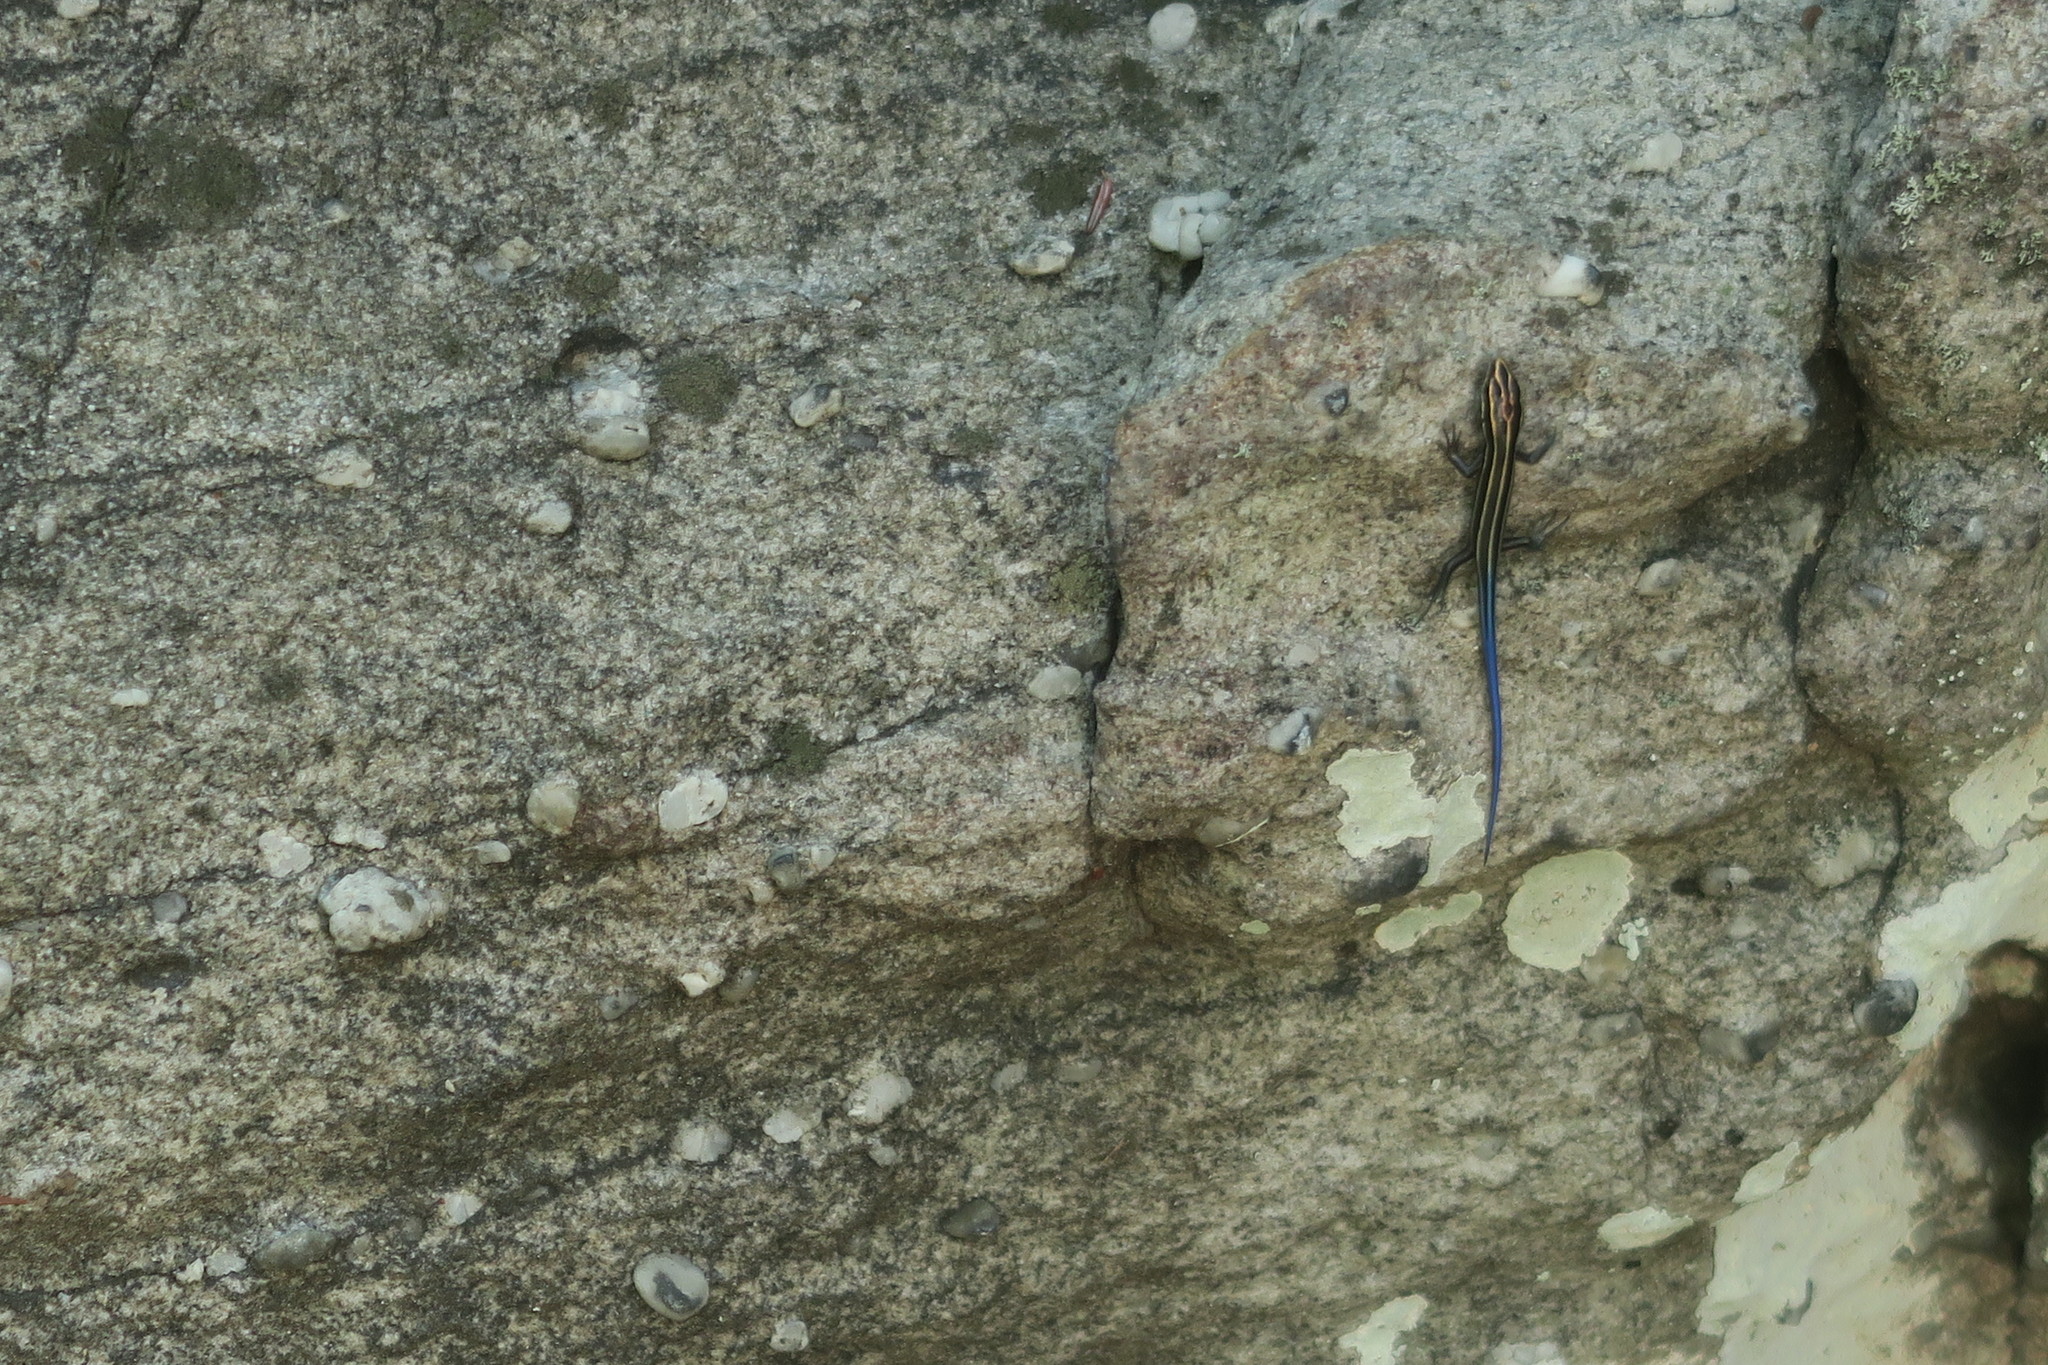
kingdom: Animalia
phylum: Chordata
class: Squamata
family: Scincidae
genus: Plestiodon
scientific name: Plestiodon fasciatus
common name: Five-lined skink
